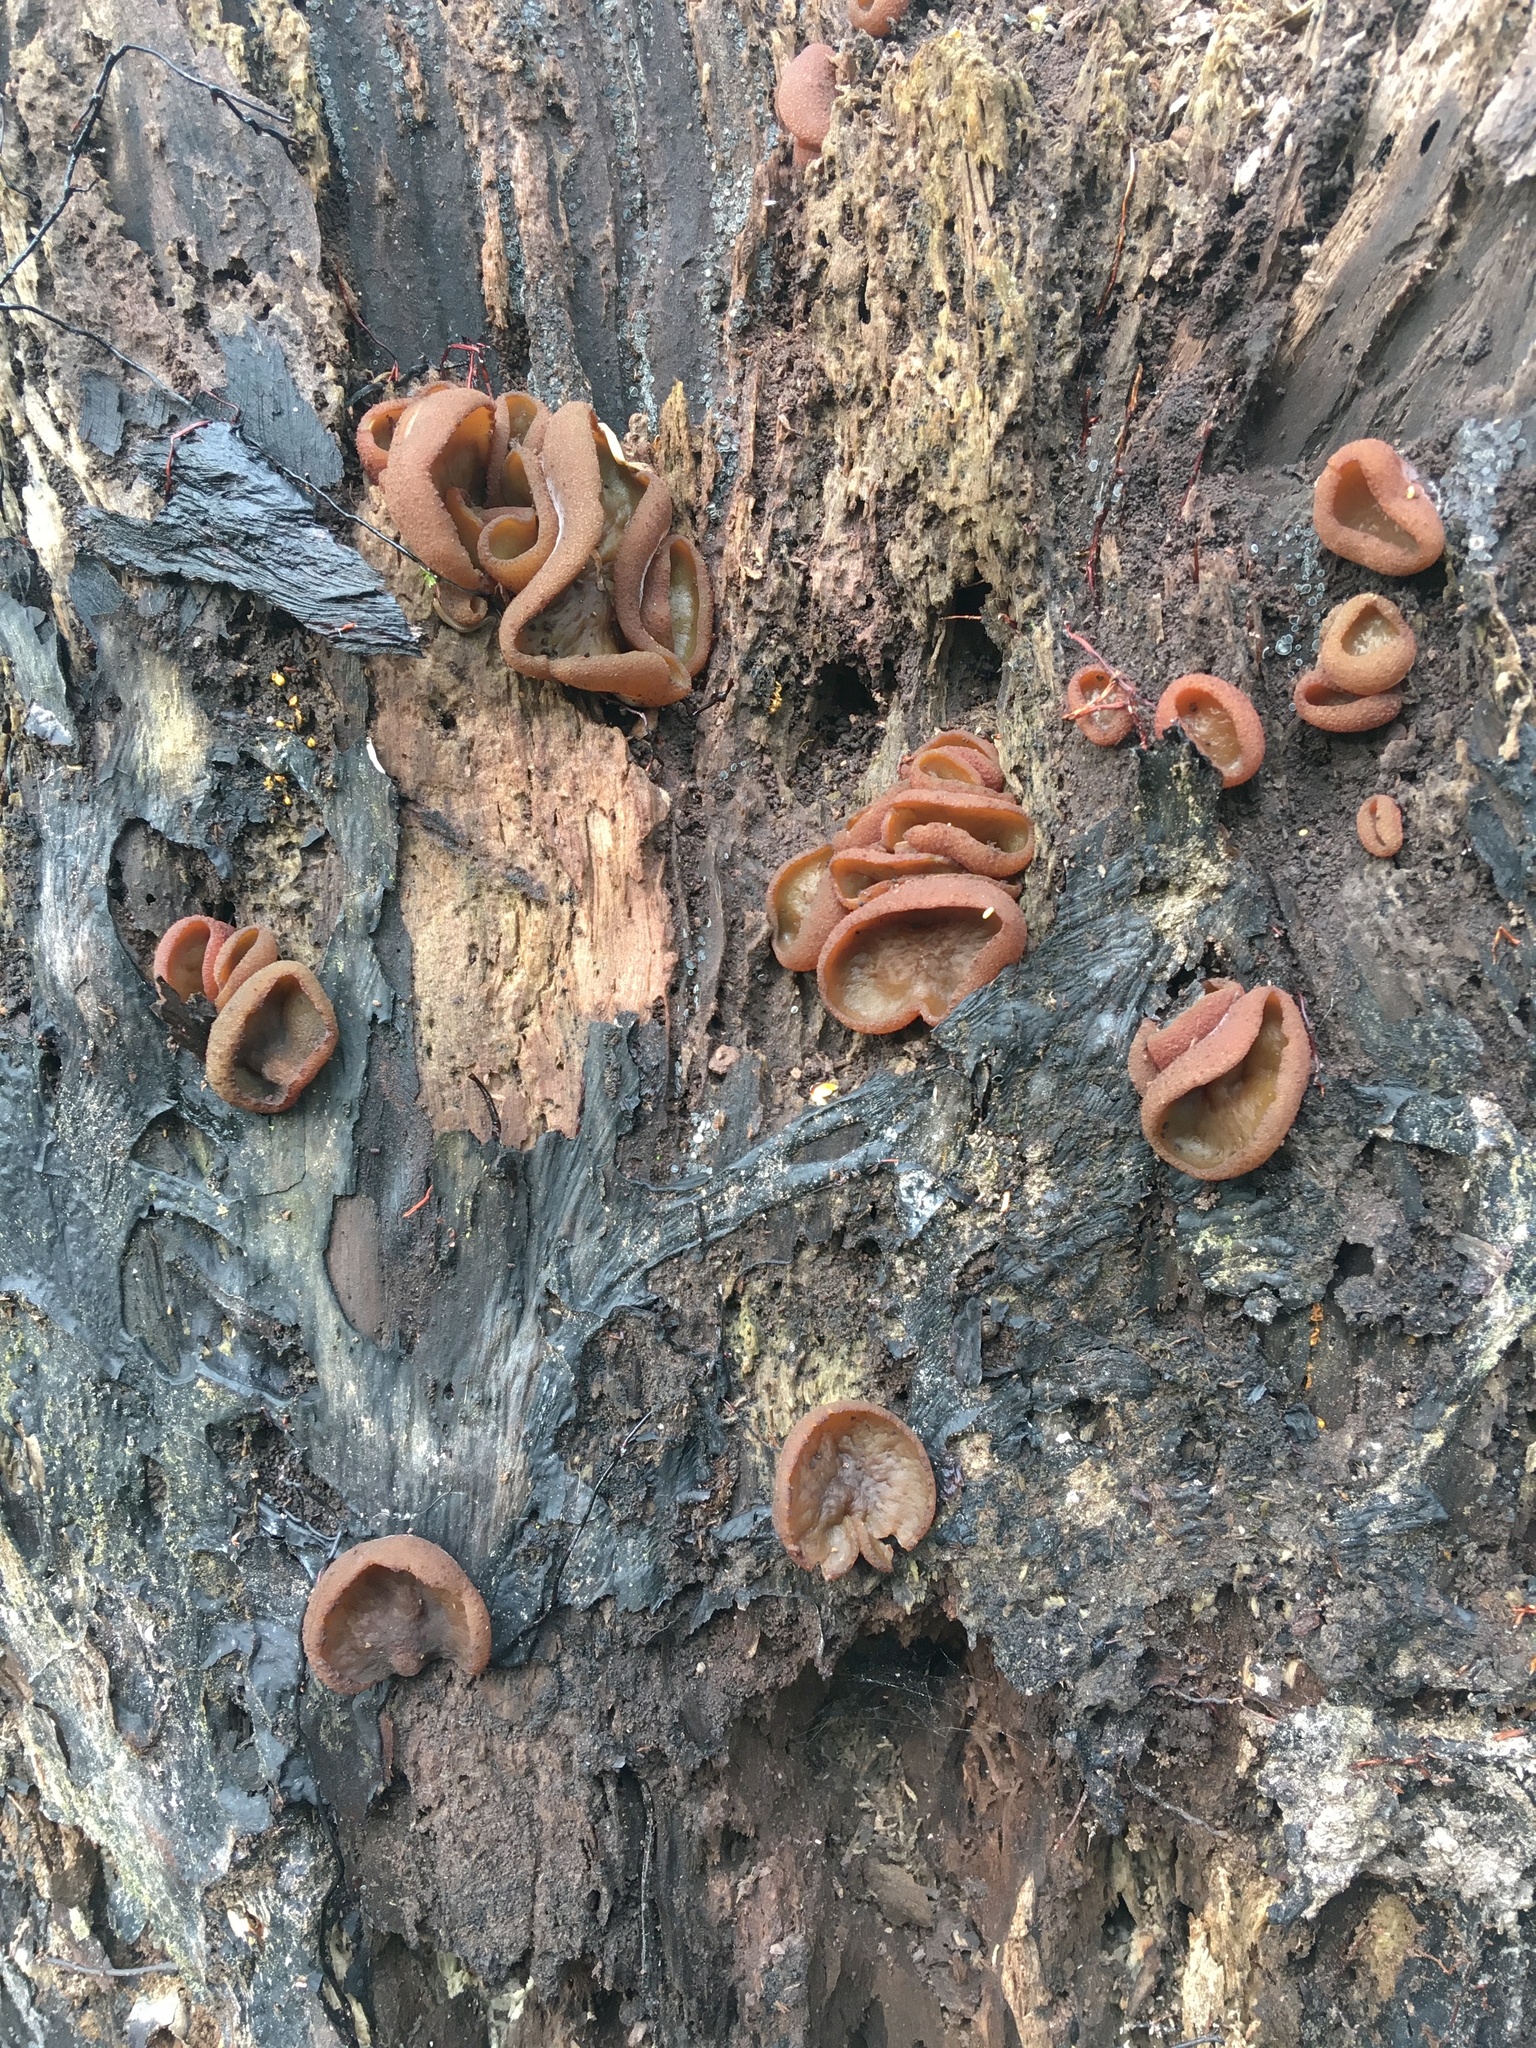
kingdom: Fungi
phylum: Ascomycota
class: Pezizomycetes
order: Pezizales
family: Pezizaceae
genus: Phylloscypha
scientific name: Phylloscypha phyllogena
